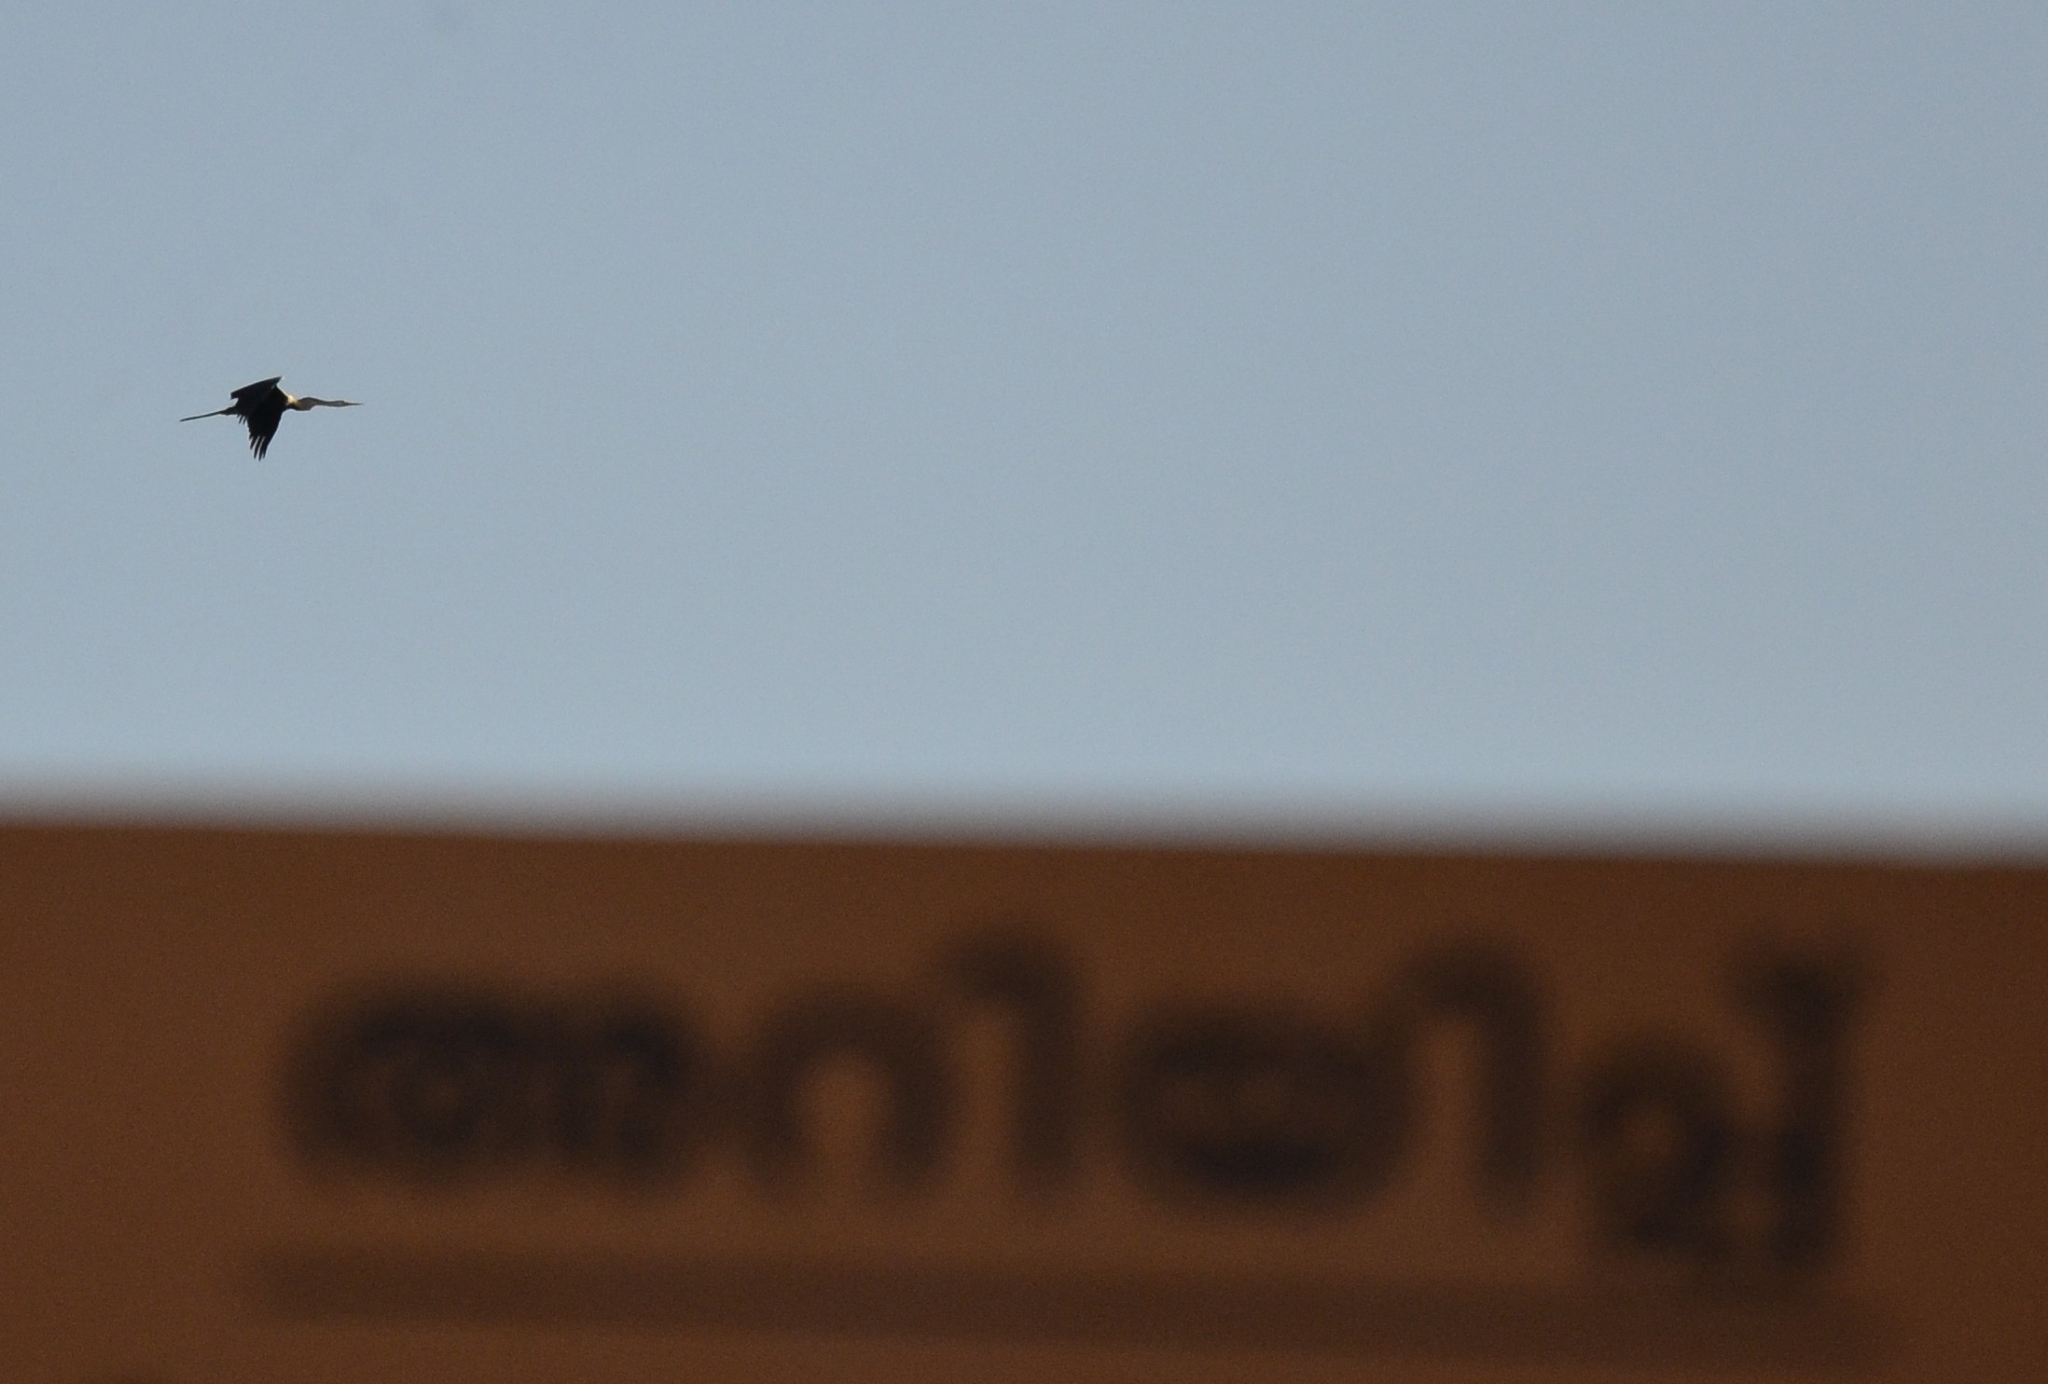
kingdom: Animalia
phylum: Chordata
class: Aves
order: Suliformes
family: Anhingidae
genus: Anhinga
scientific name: Anhinga melanogaster
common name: Oriental darter
